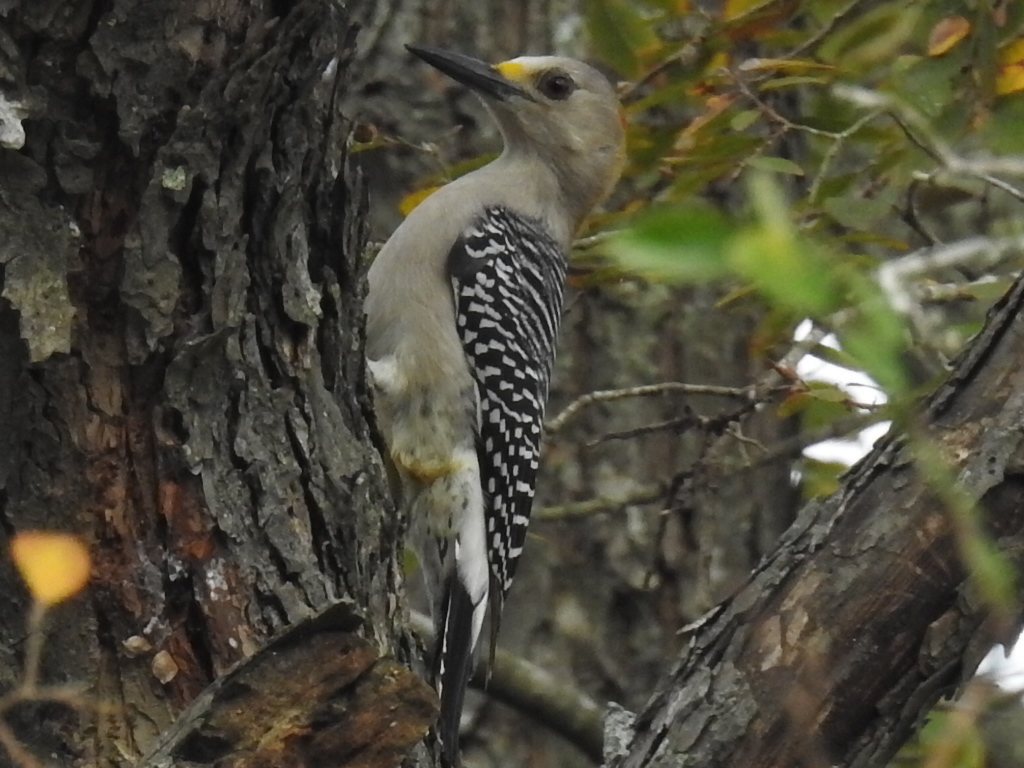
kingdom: Animalia
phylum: Chordata
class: Aves
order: Piciformes
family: Picidae
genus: Melanerpes
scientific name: Melanerpes aurifrons
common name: Golden-fronted woodpecker
